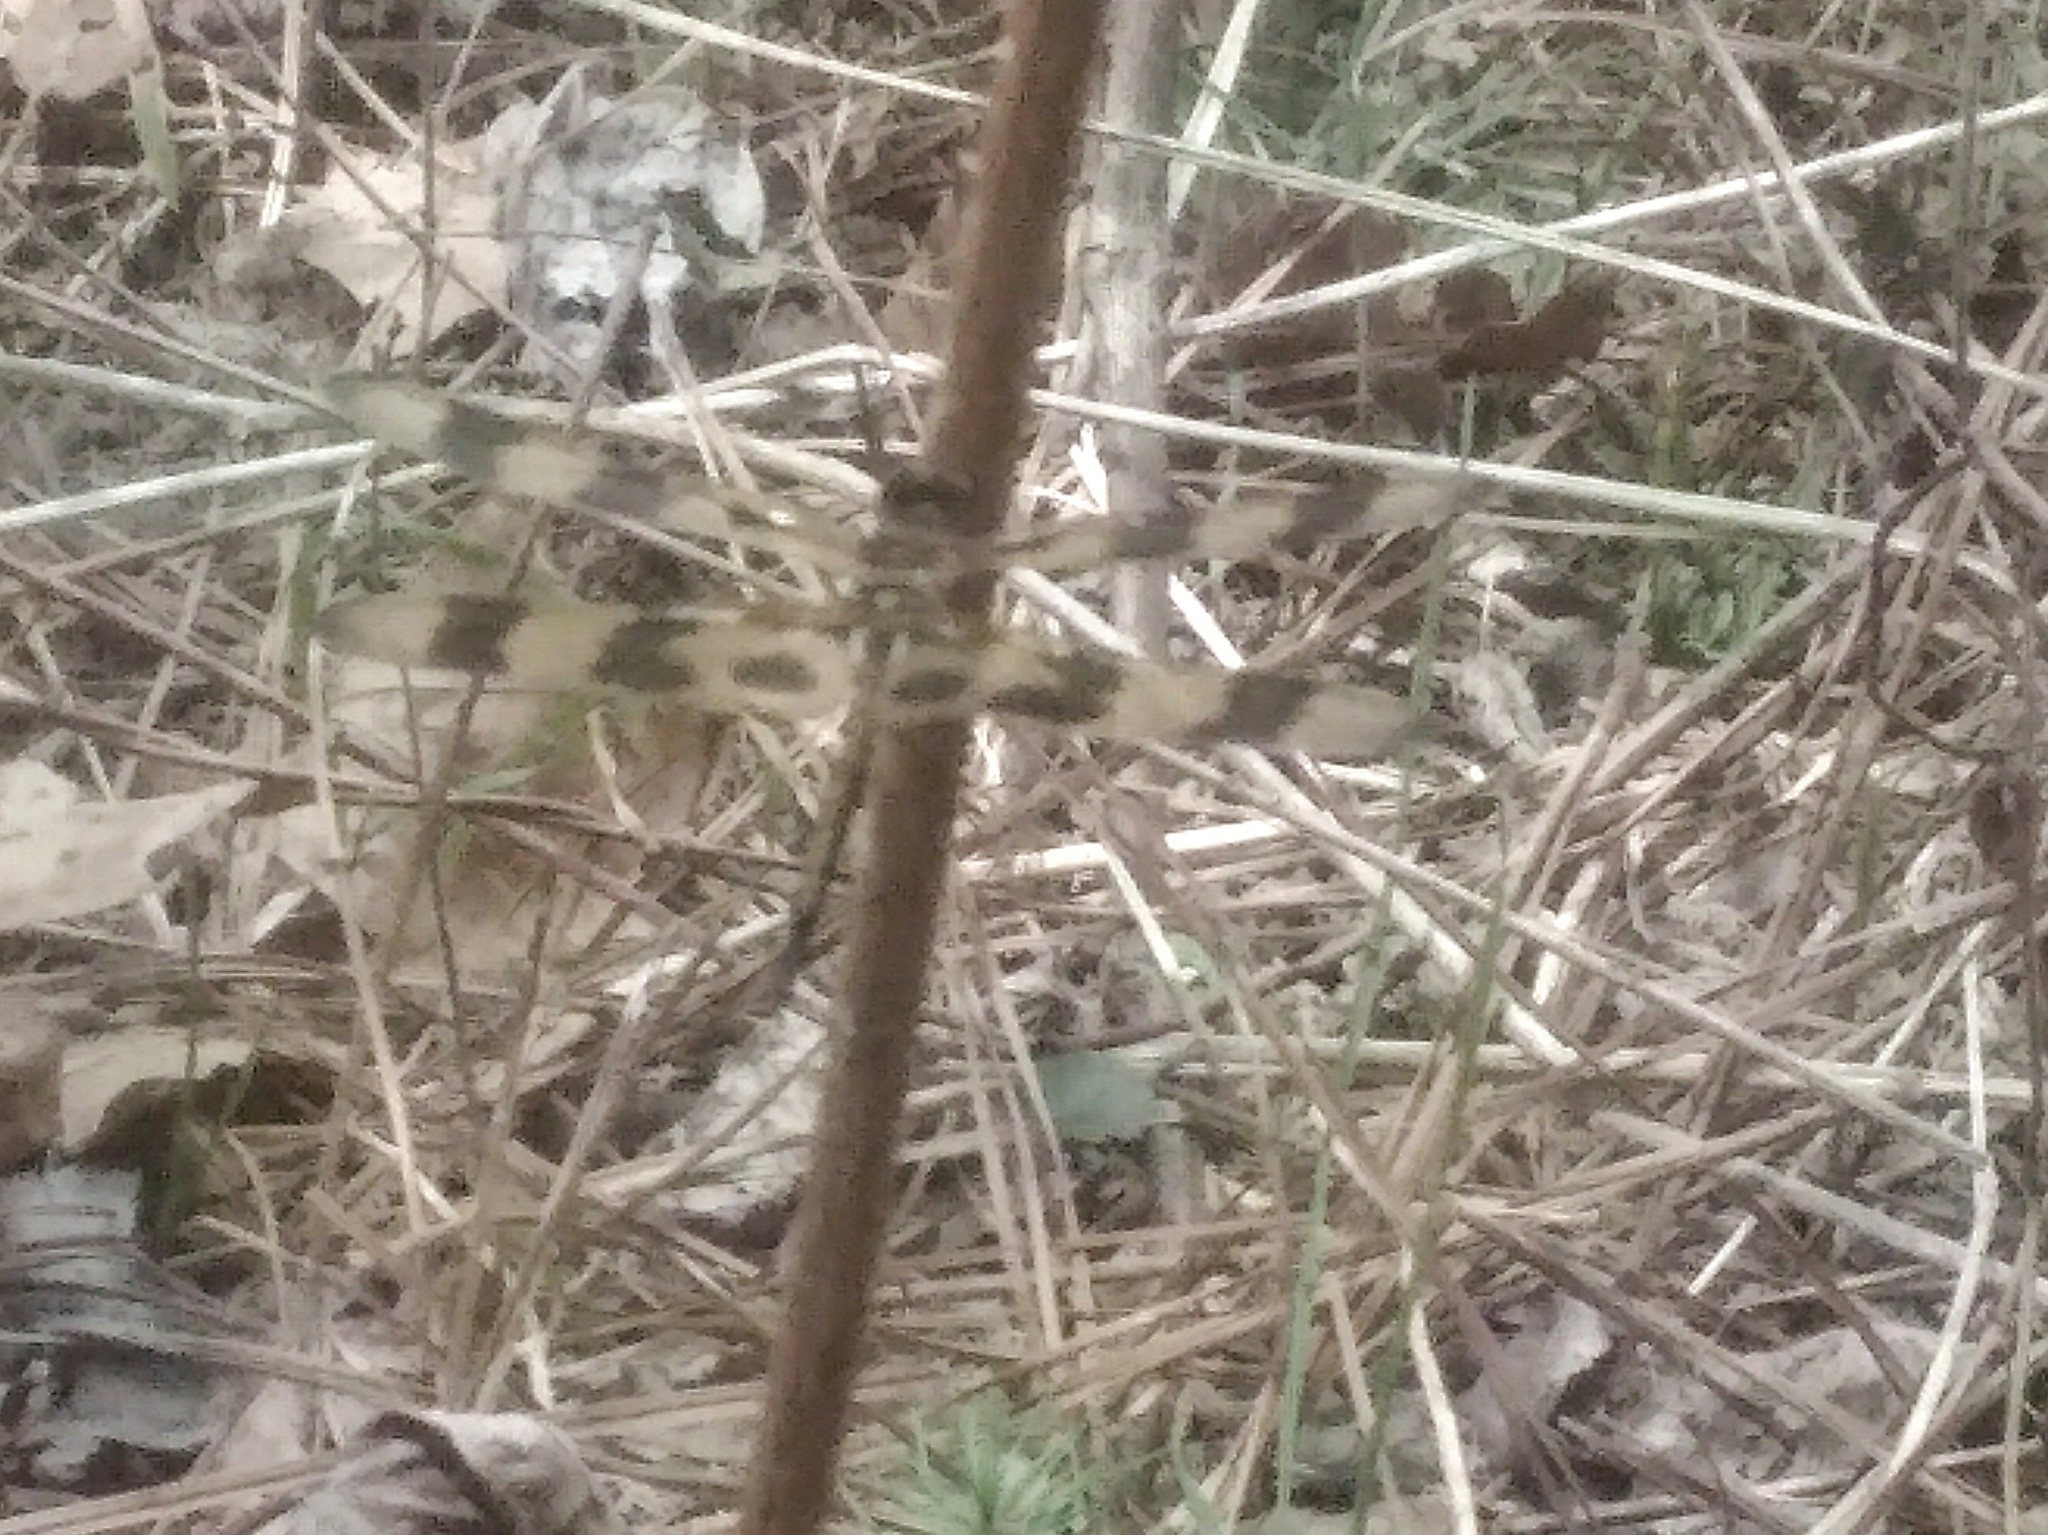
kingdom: Animalia
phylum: Arthropoda
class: Insecta
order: Odonata
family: Libellulidae
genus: Celithemis
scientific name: Celithemis eponina
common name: Halloween pennant
